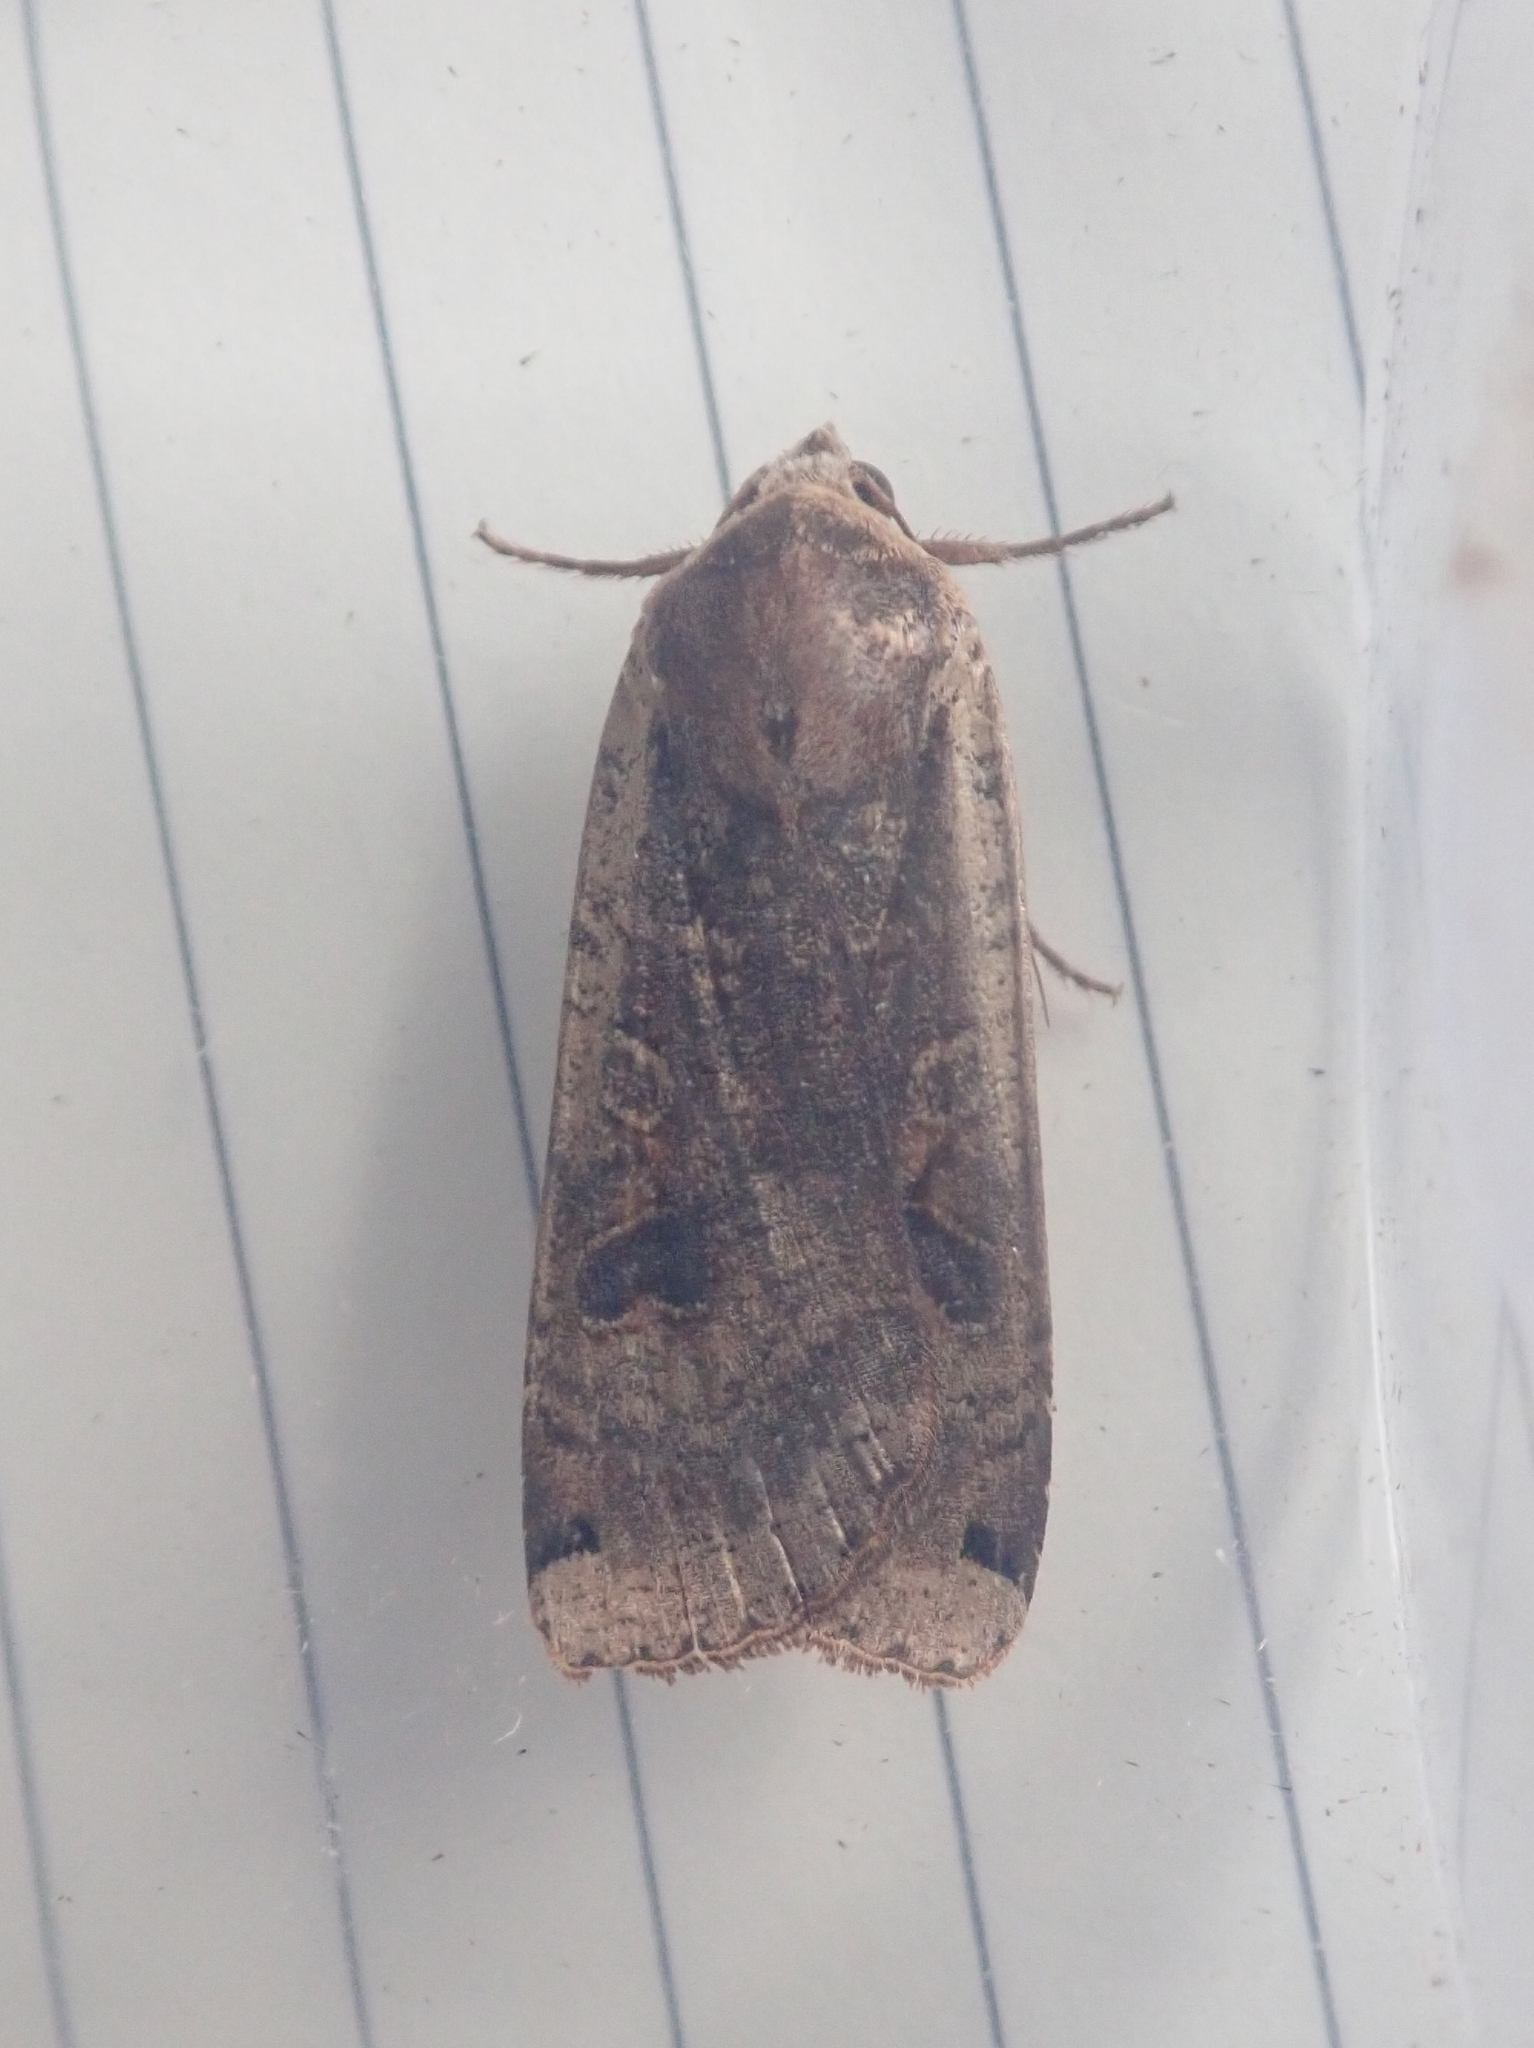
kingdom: Animalia
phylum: Arthropoda
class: Insecta
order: Lepidoptera
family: Noctuidae
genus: Noctua
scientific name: Noctua pronuba
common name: Large yellow underwing
